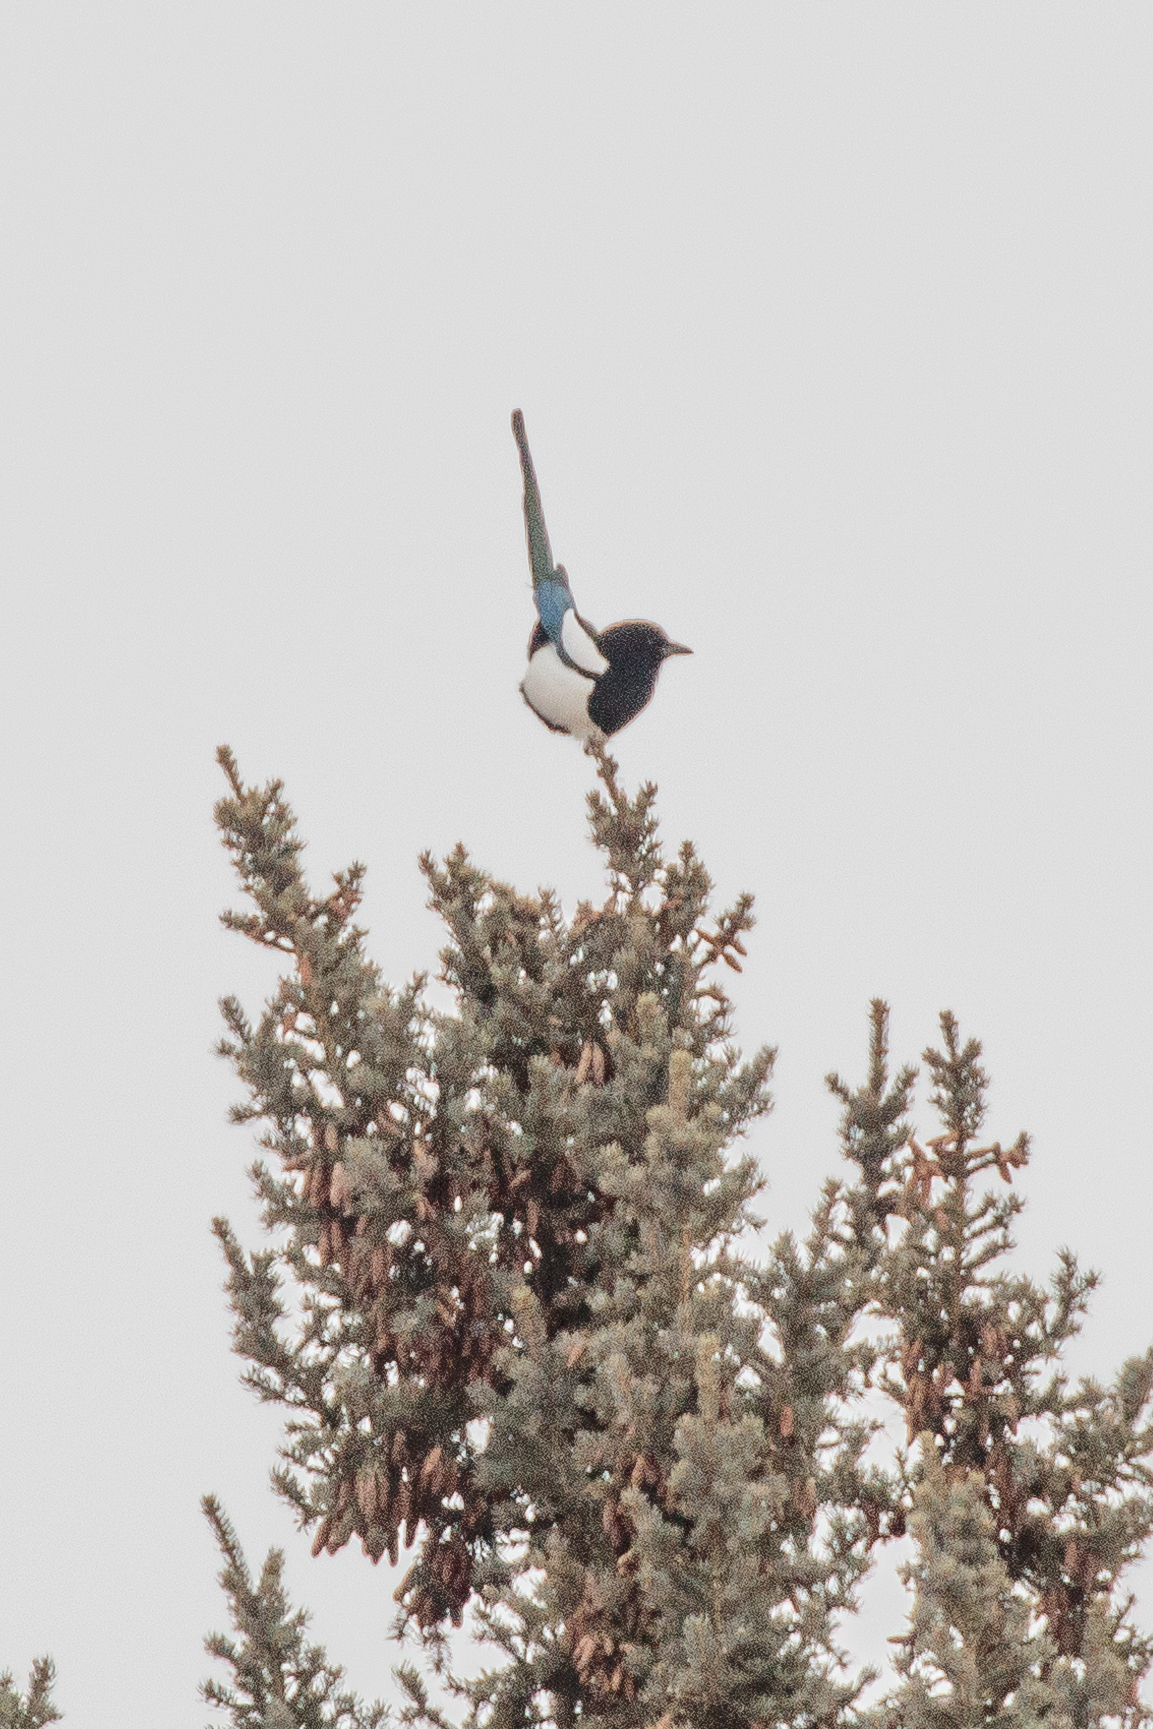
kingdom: Animalia
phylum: Chordata
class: Aves
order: Passeriformes
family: Corvidae
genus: Pica
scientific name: Pica hudsonia
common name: Black-billed magpie
